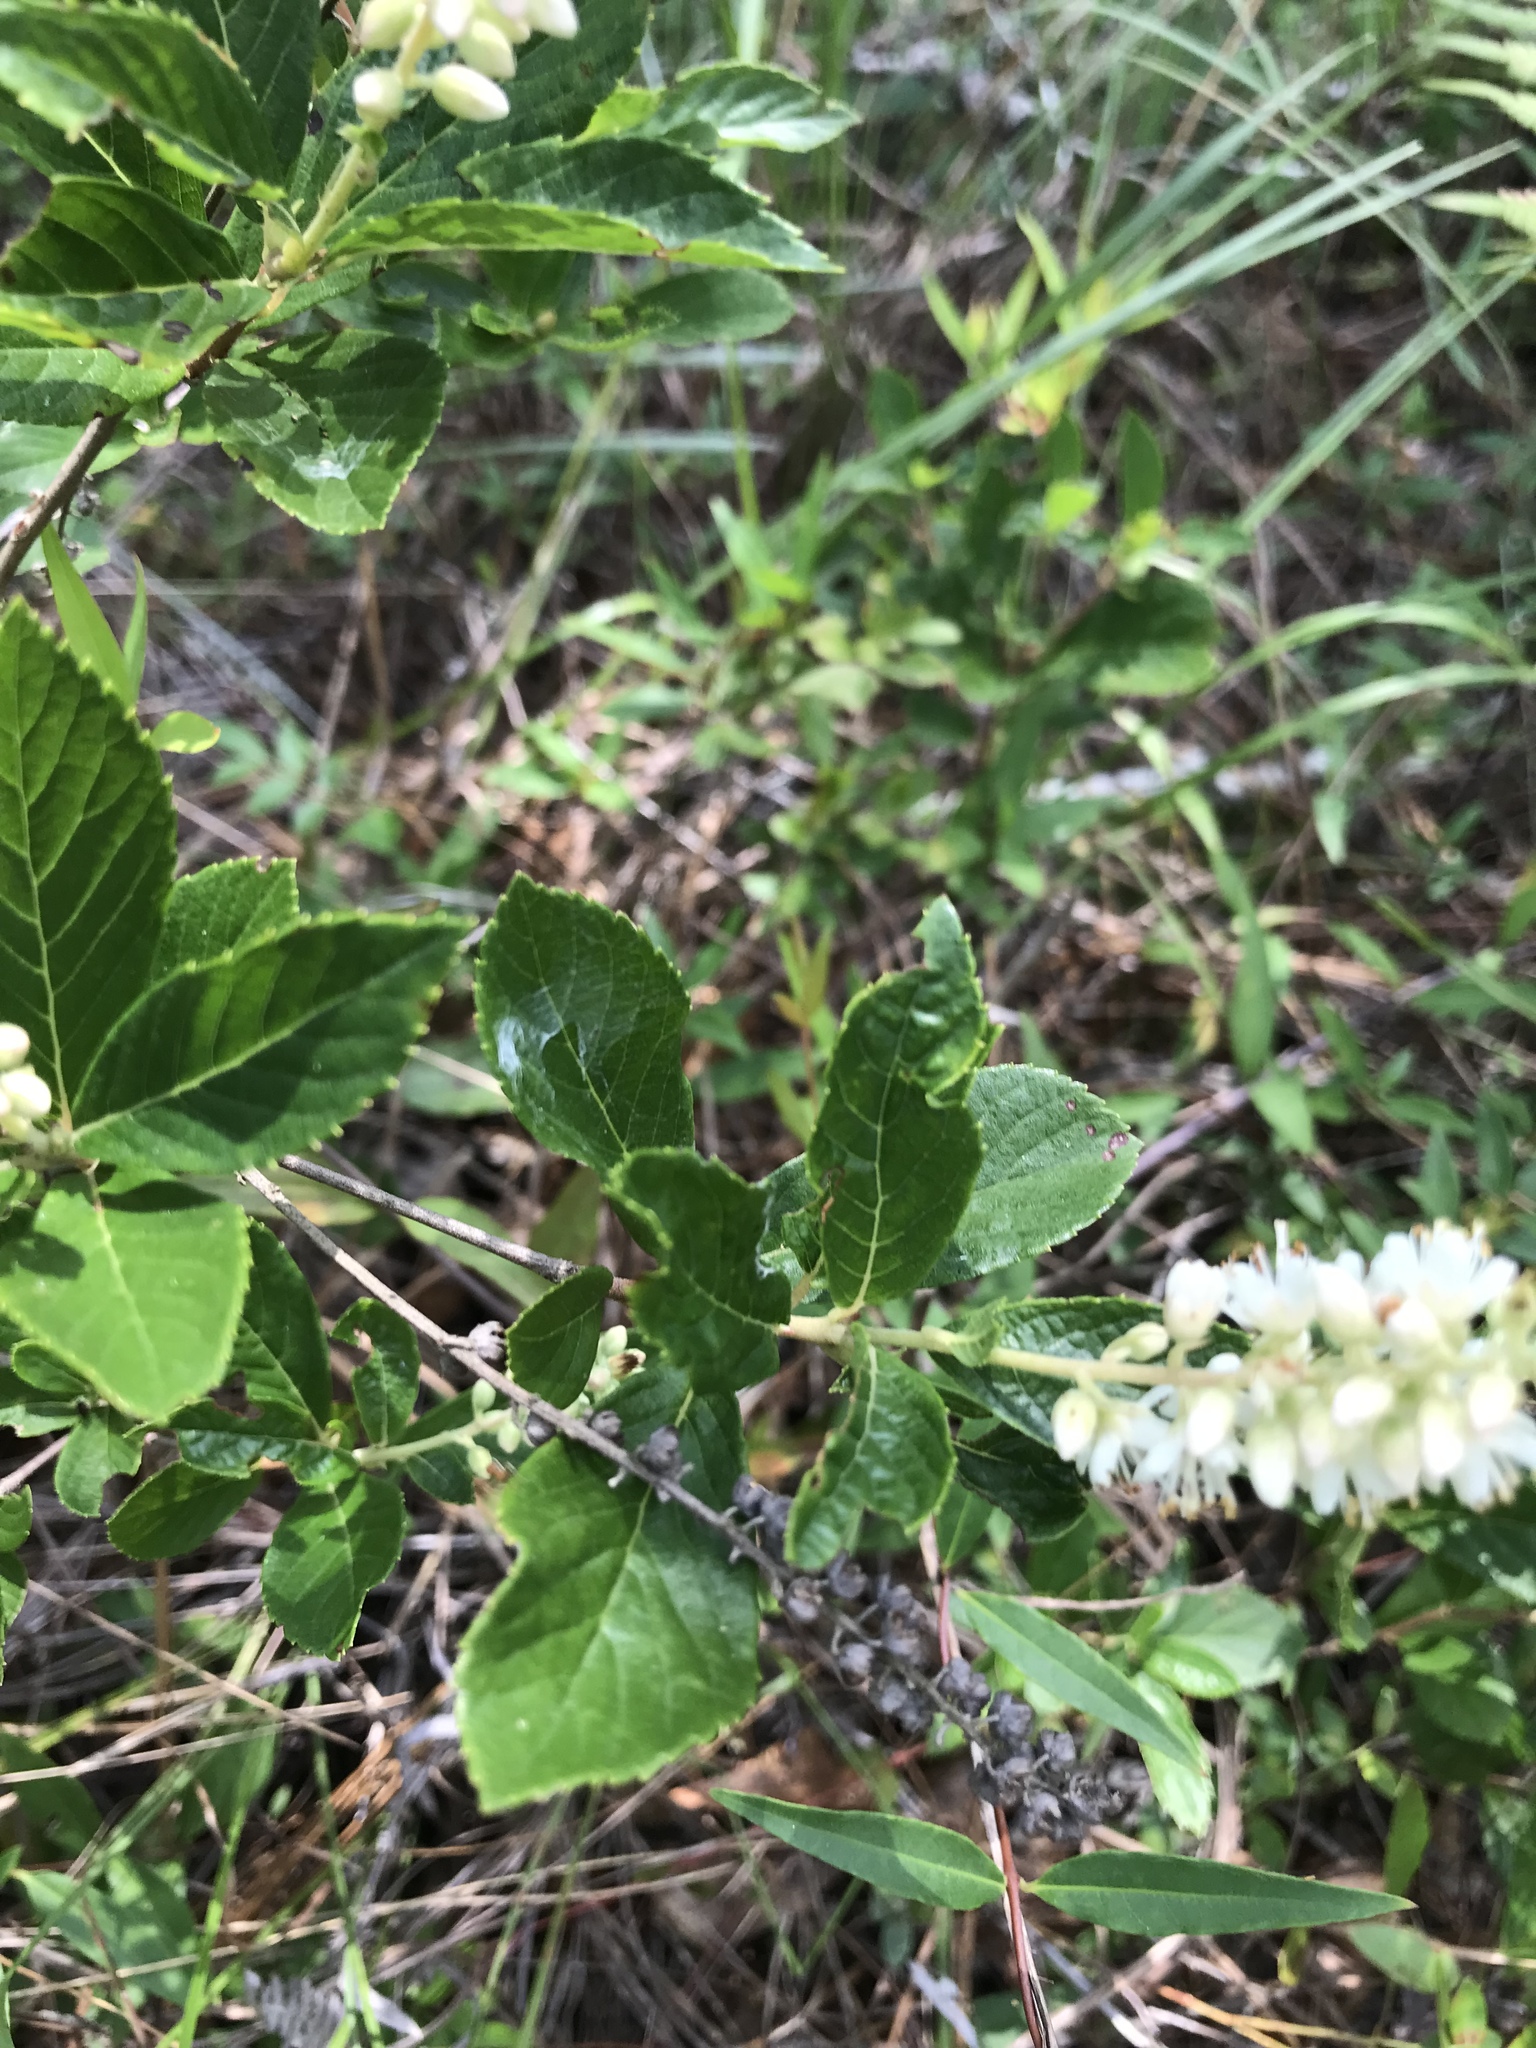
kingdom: Plantae
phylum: Tracheophyta
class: Magnoliopsida
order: Ericales
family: Clethraceae
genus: Clethra
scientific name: Clethra alnifolia
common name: Sweet pepperbush
